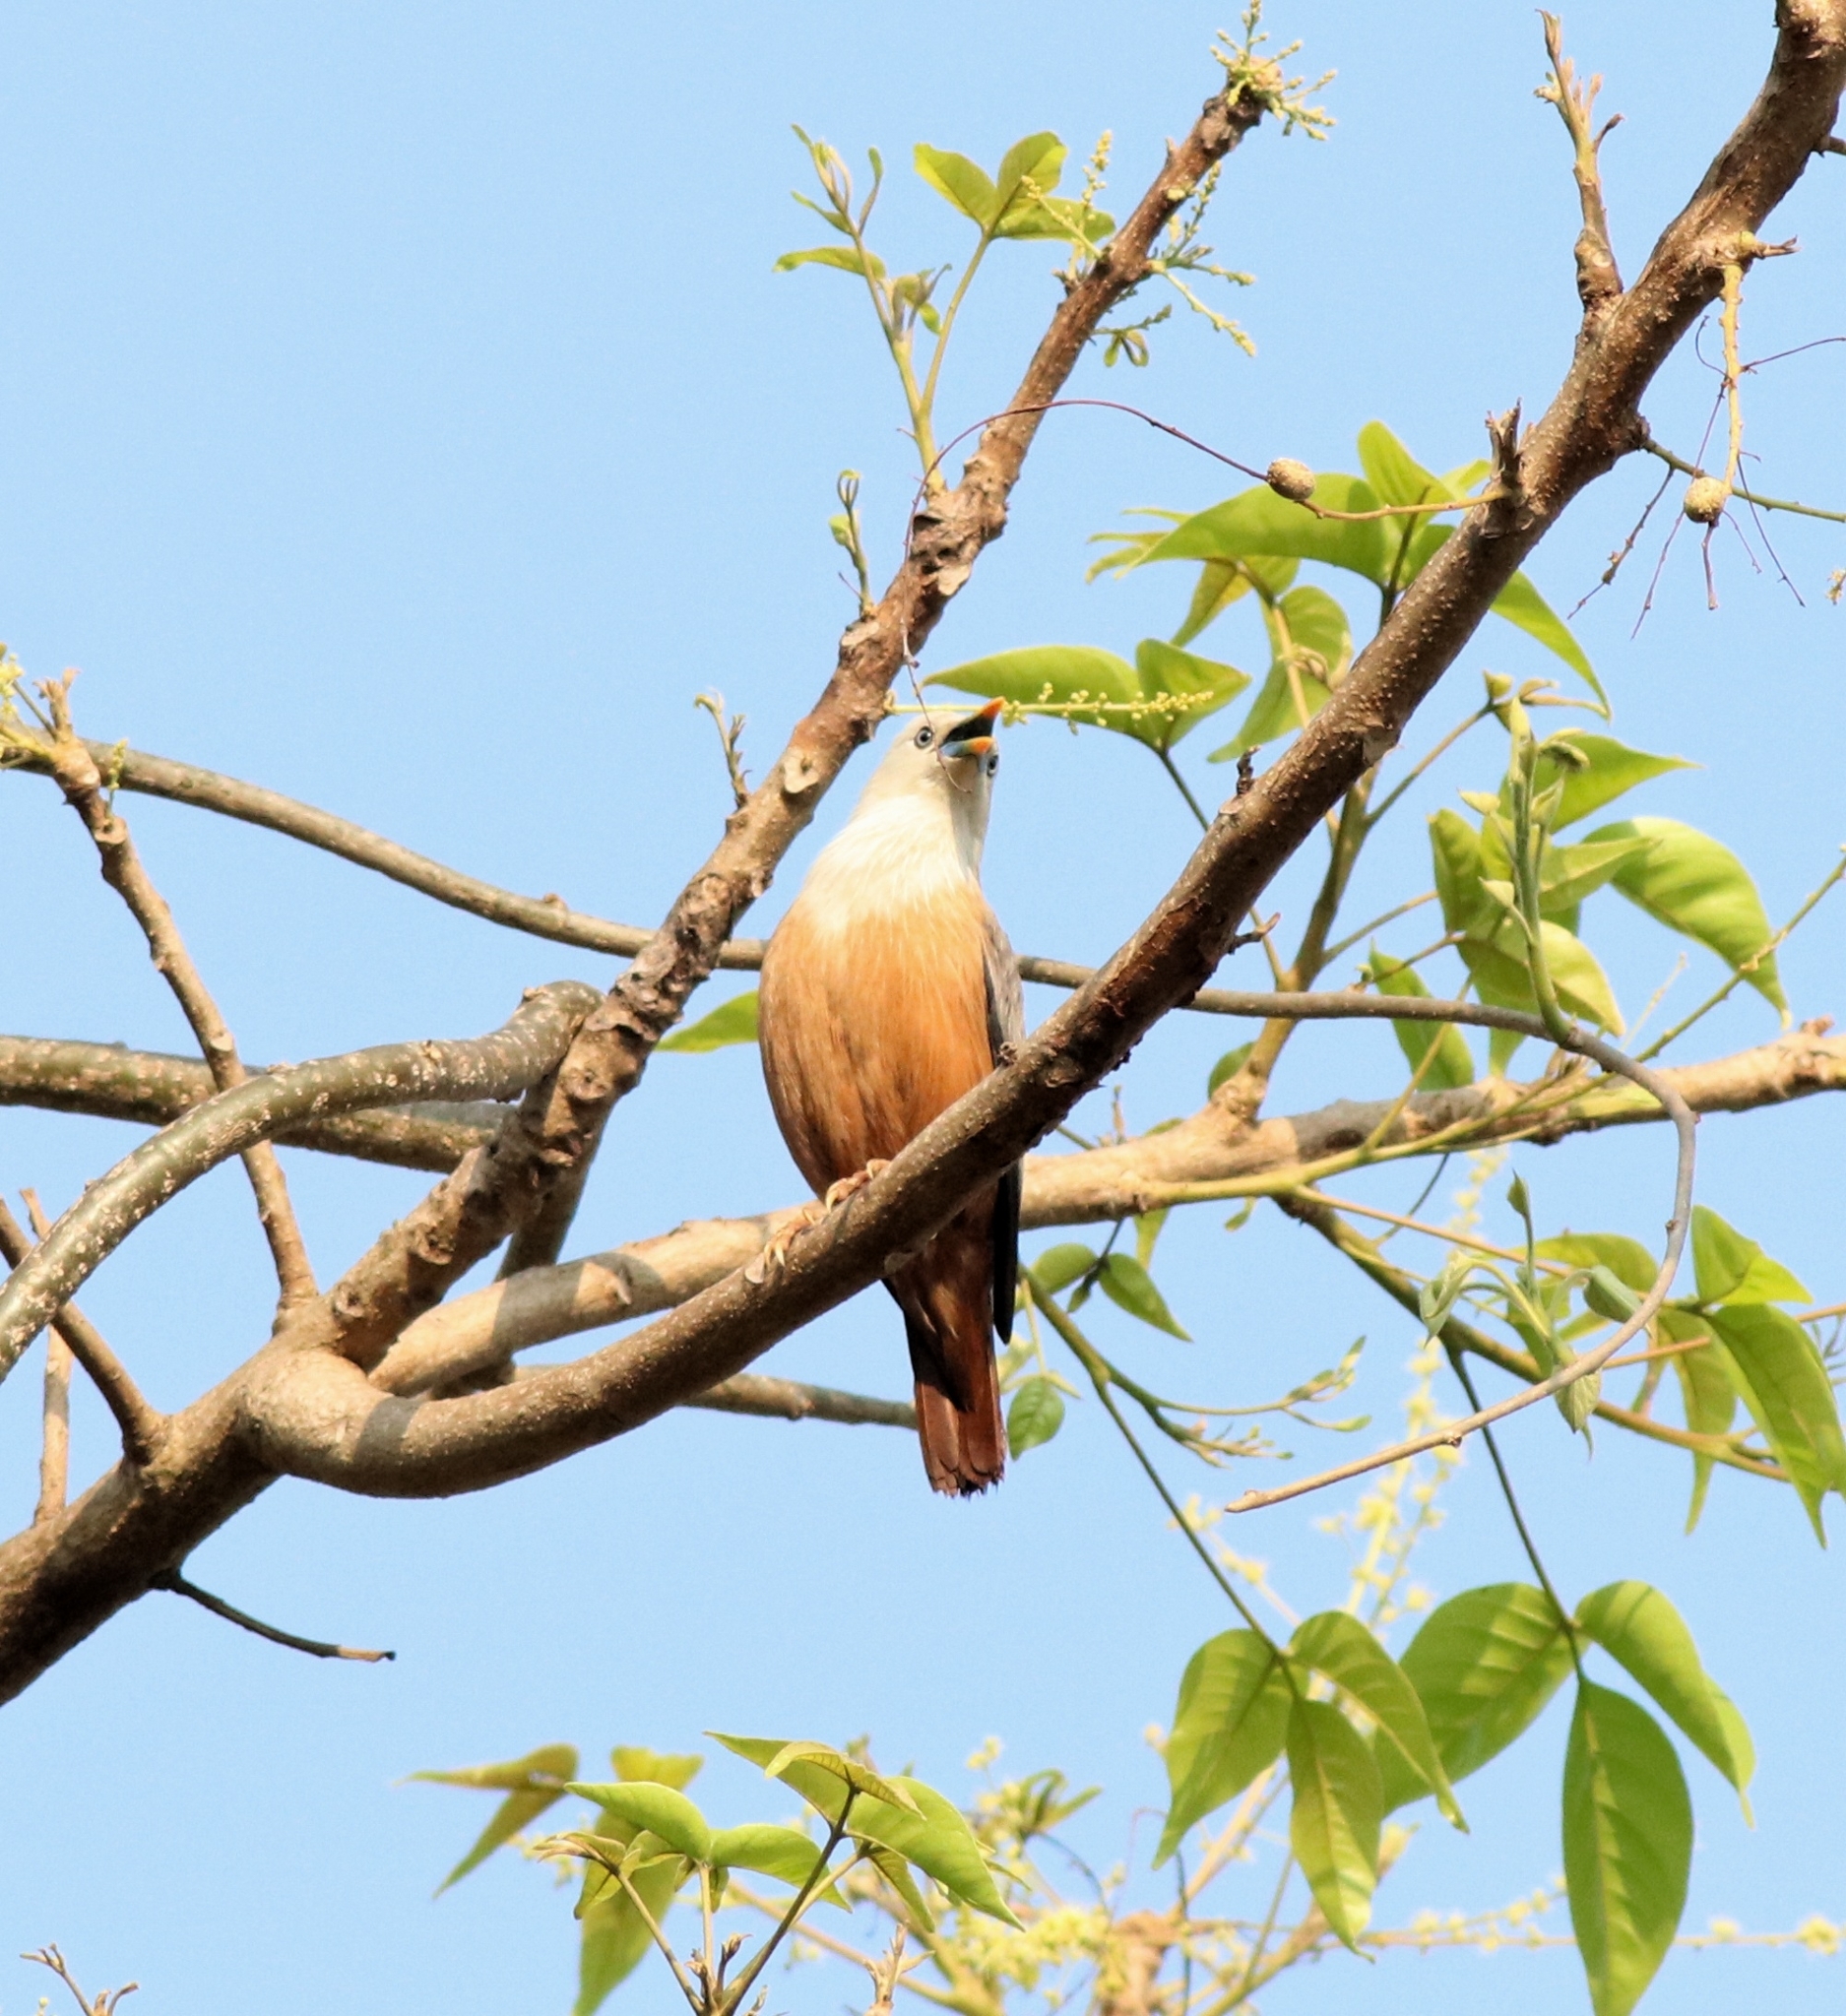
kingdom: Animalia
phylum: Chordata
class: Aves
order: Passeriformes
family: Sturnidae
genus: Sturnia
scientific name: Sturnia blythii
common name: Malabar starling
